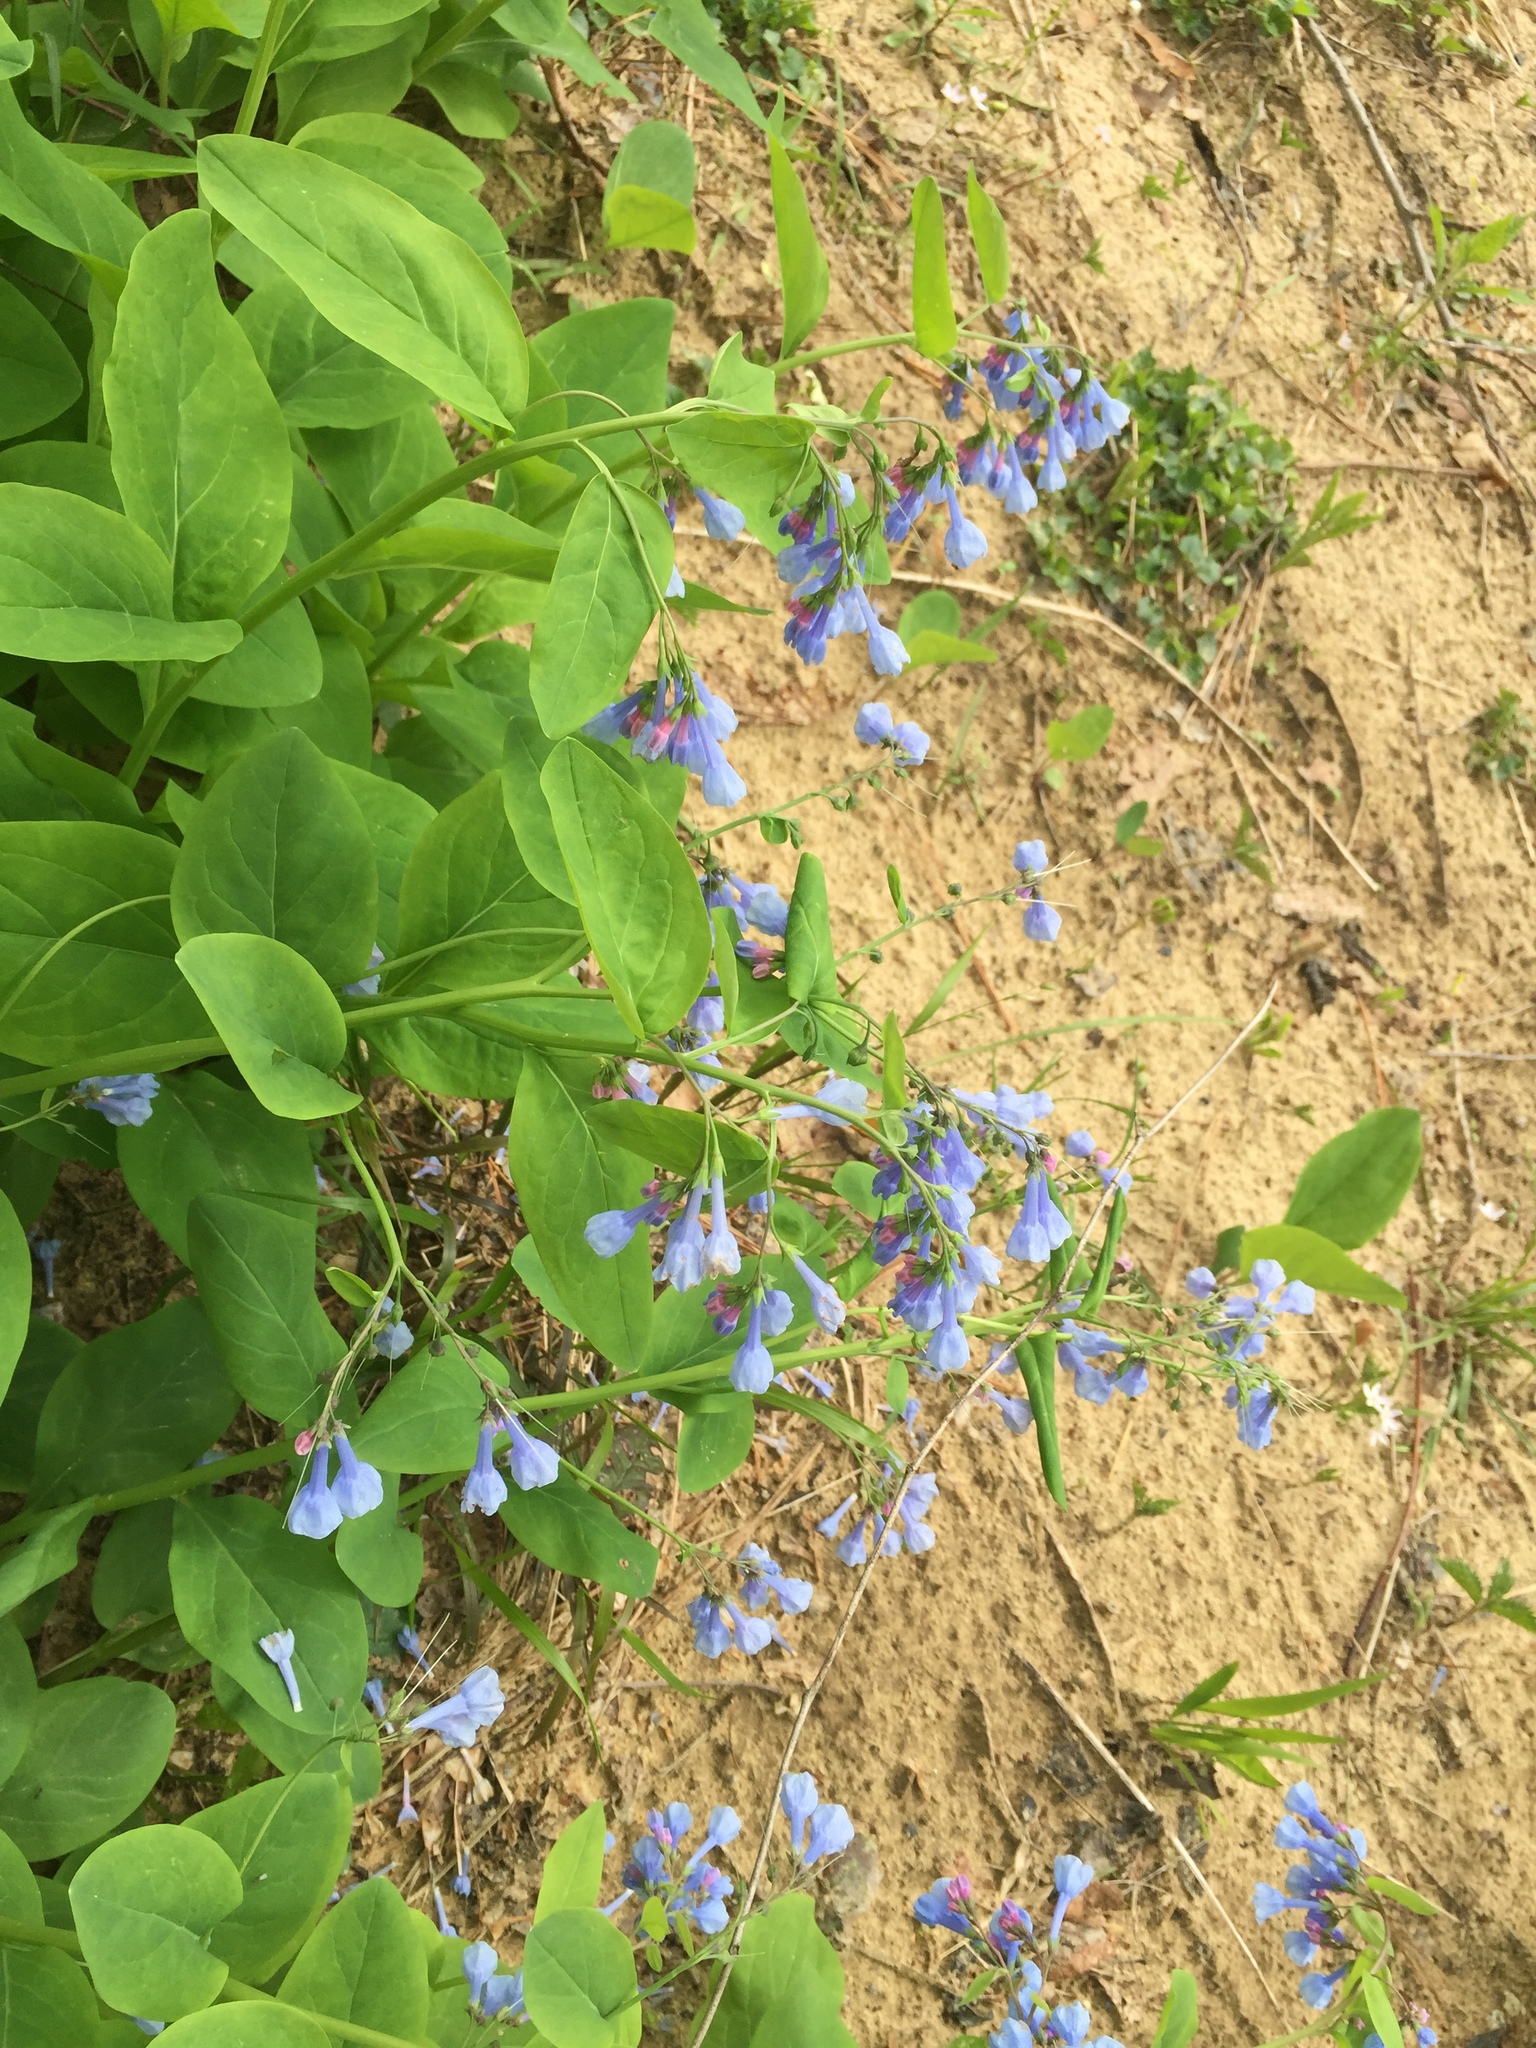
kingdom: Plantae
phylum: Tracheophyta
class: Magnoliopsida
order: Boraginales
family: Boraginaceae
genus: Mertensia
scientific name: Mertensia virginica
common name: Virginia bluebells
